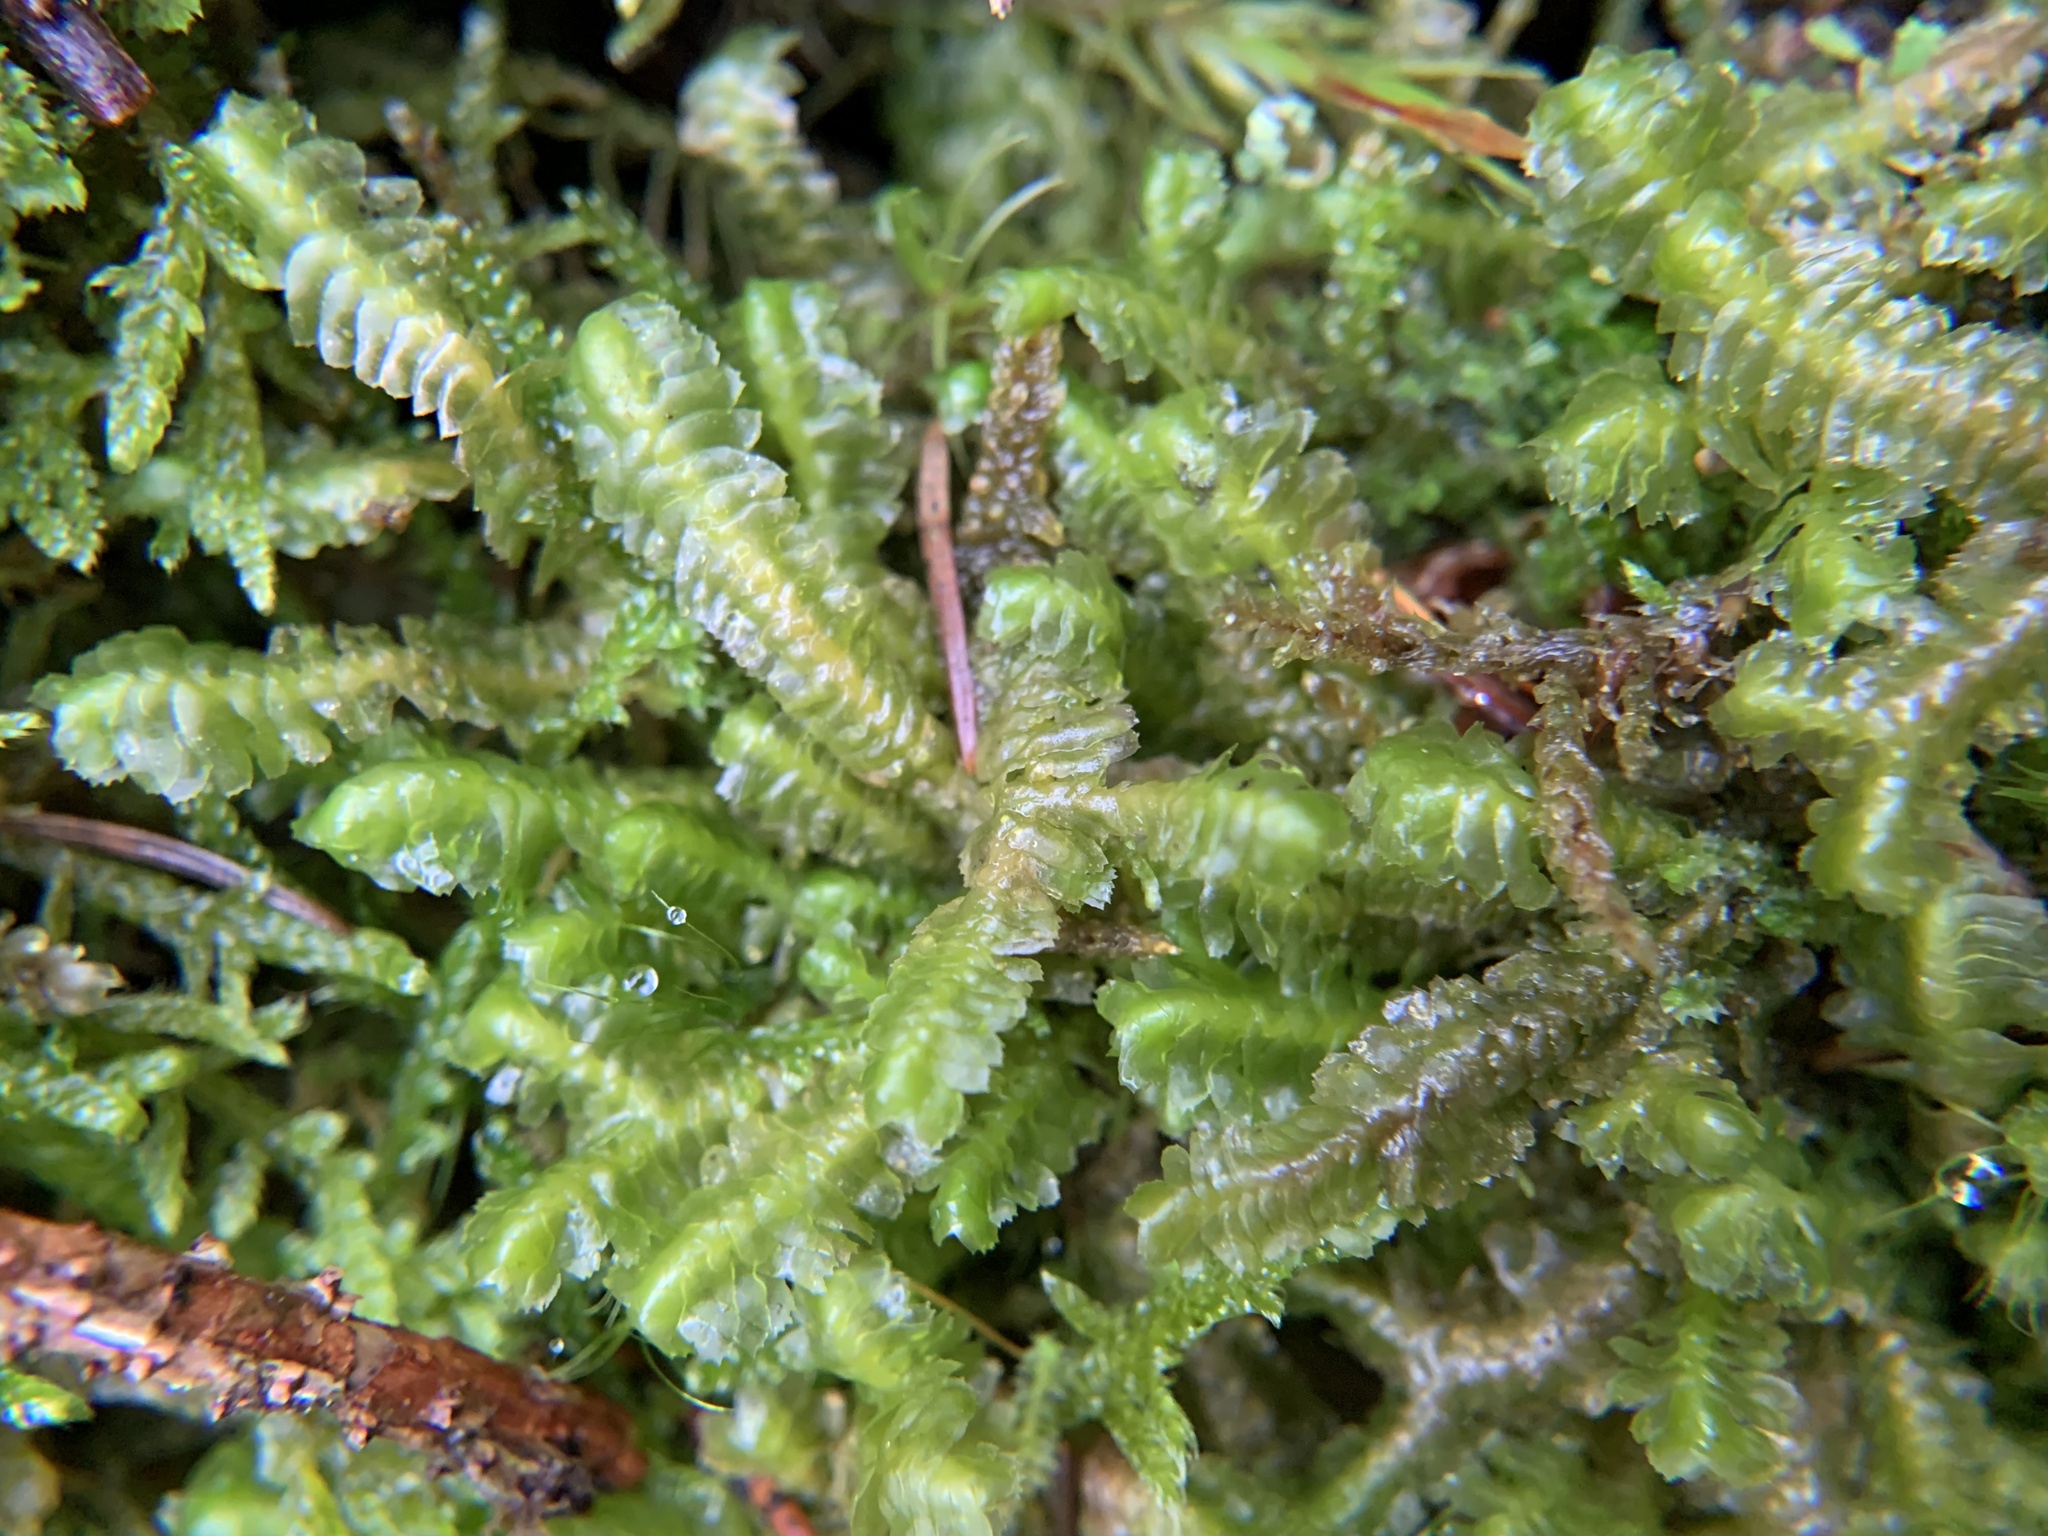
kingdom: Plantae
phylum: Marchantiophyta
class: Jungermanniopsida
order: Jungermanniales
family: Lepidoziaceae
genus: Bazzania
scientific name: Bazzania trilobata
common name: Three-lobed whipwort
